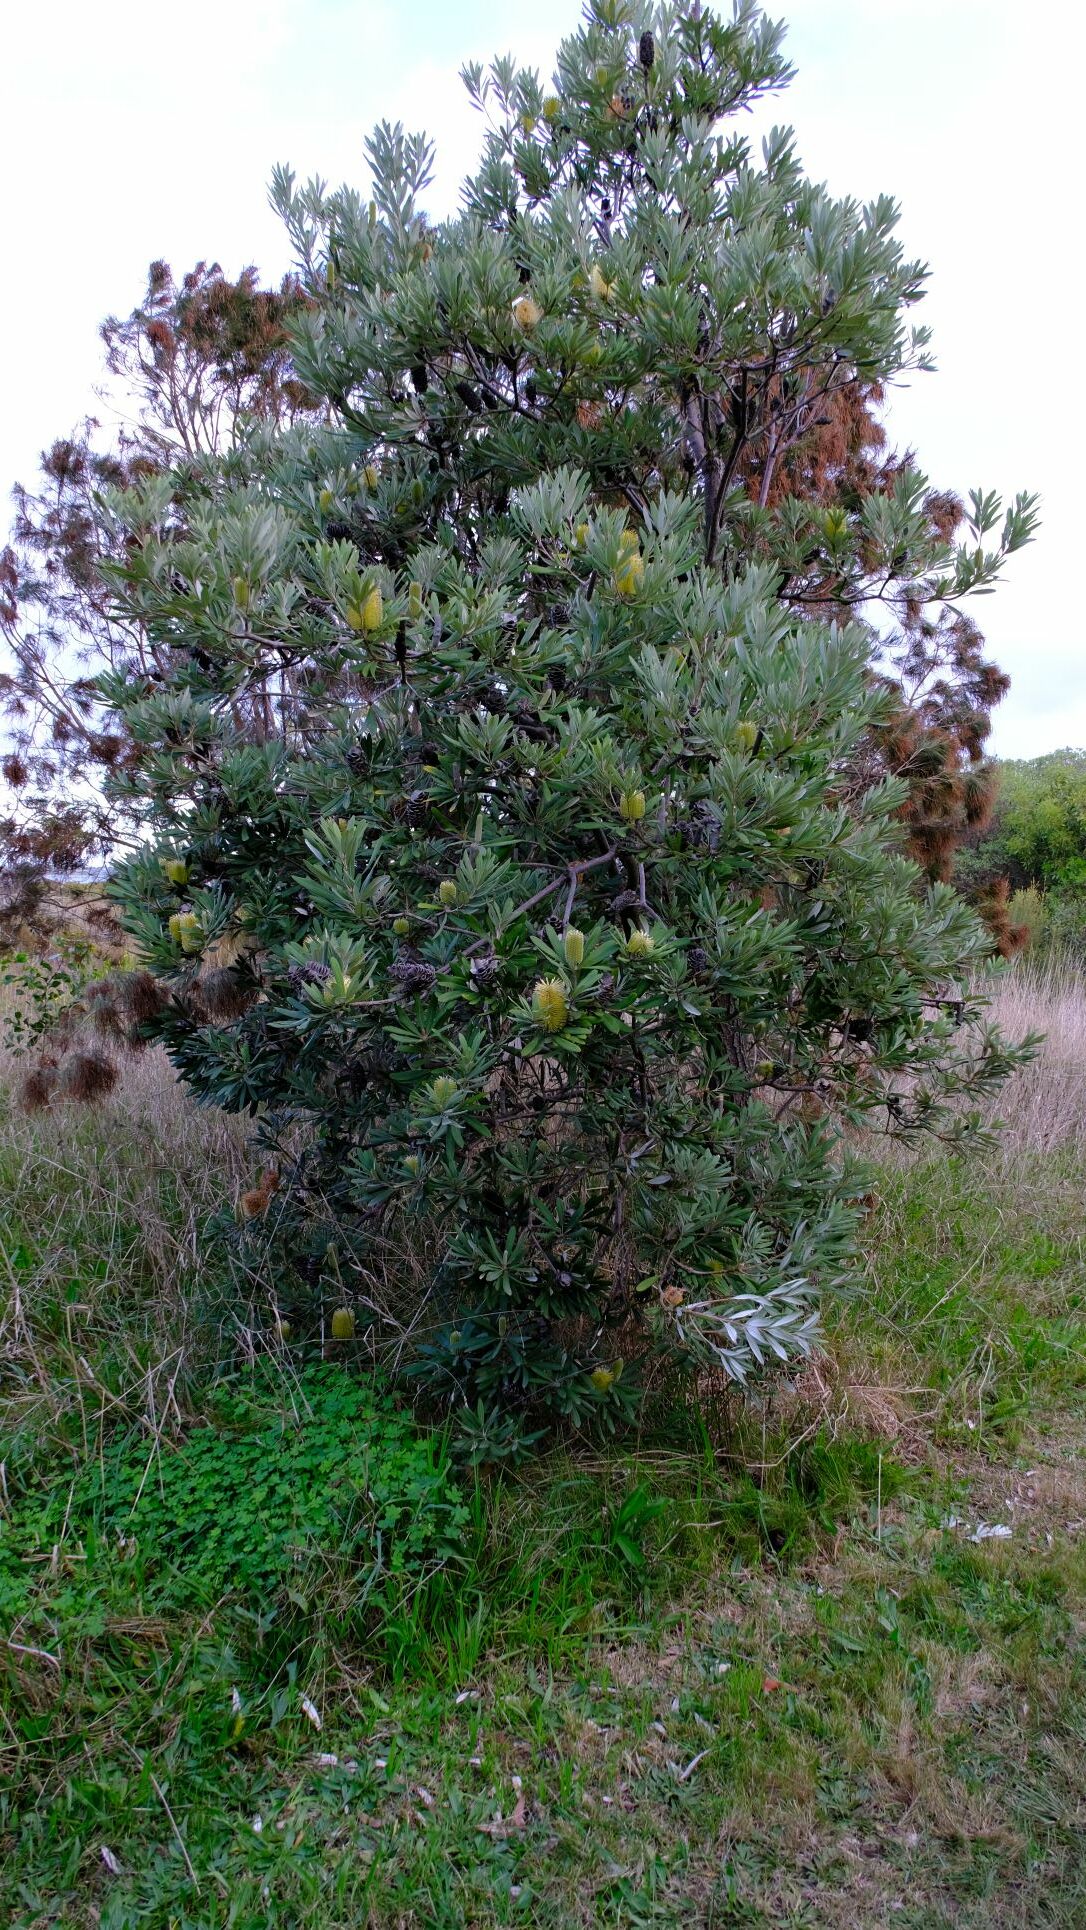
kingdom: Plantae
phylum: Tracheophyta
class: Magnoliopsida
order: Proteales
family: Proteaceae
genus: Banksia
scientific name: Banksia integrifolia
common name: White-honeysuckle
